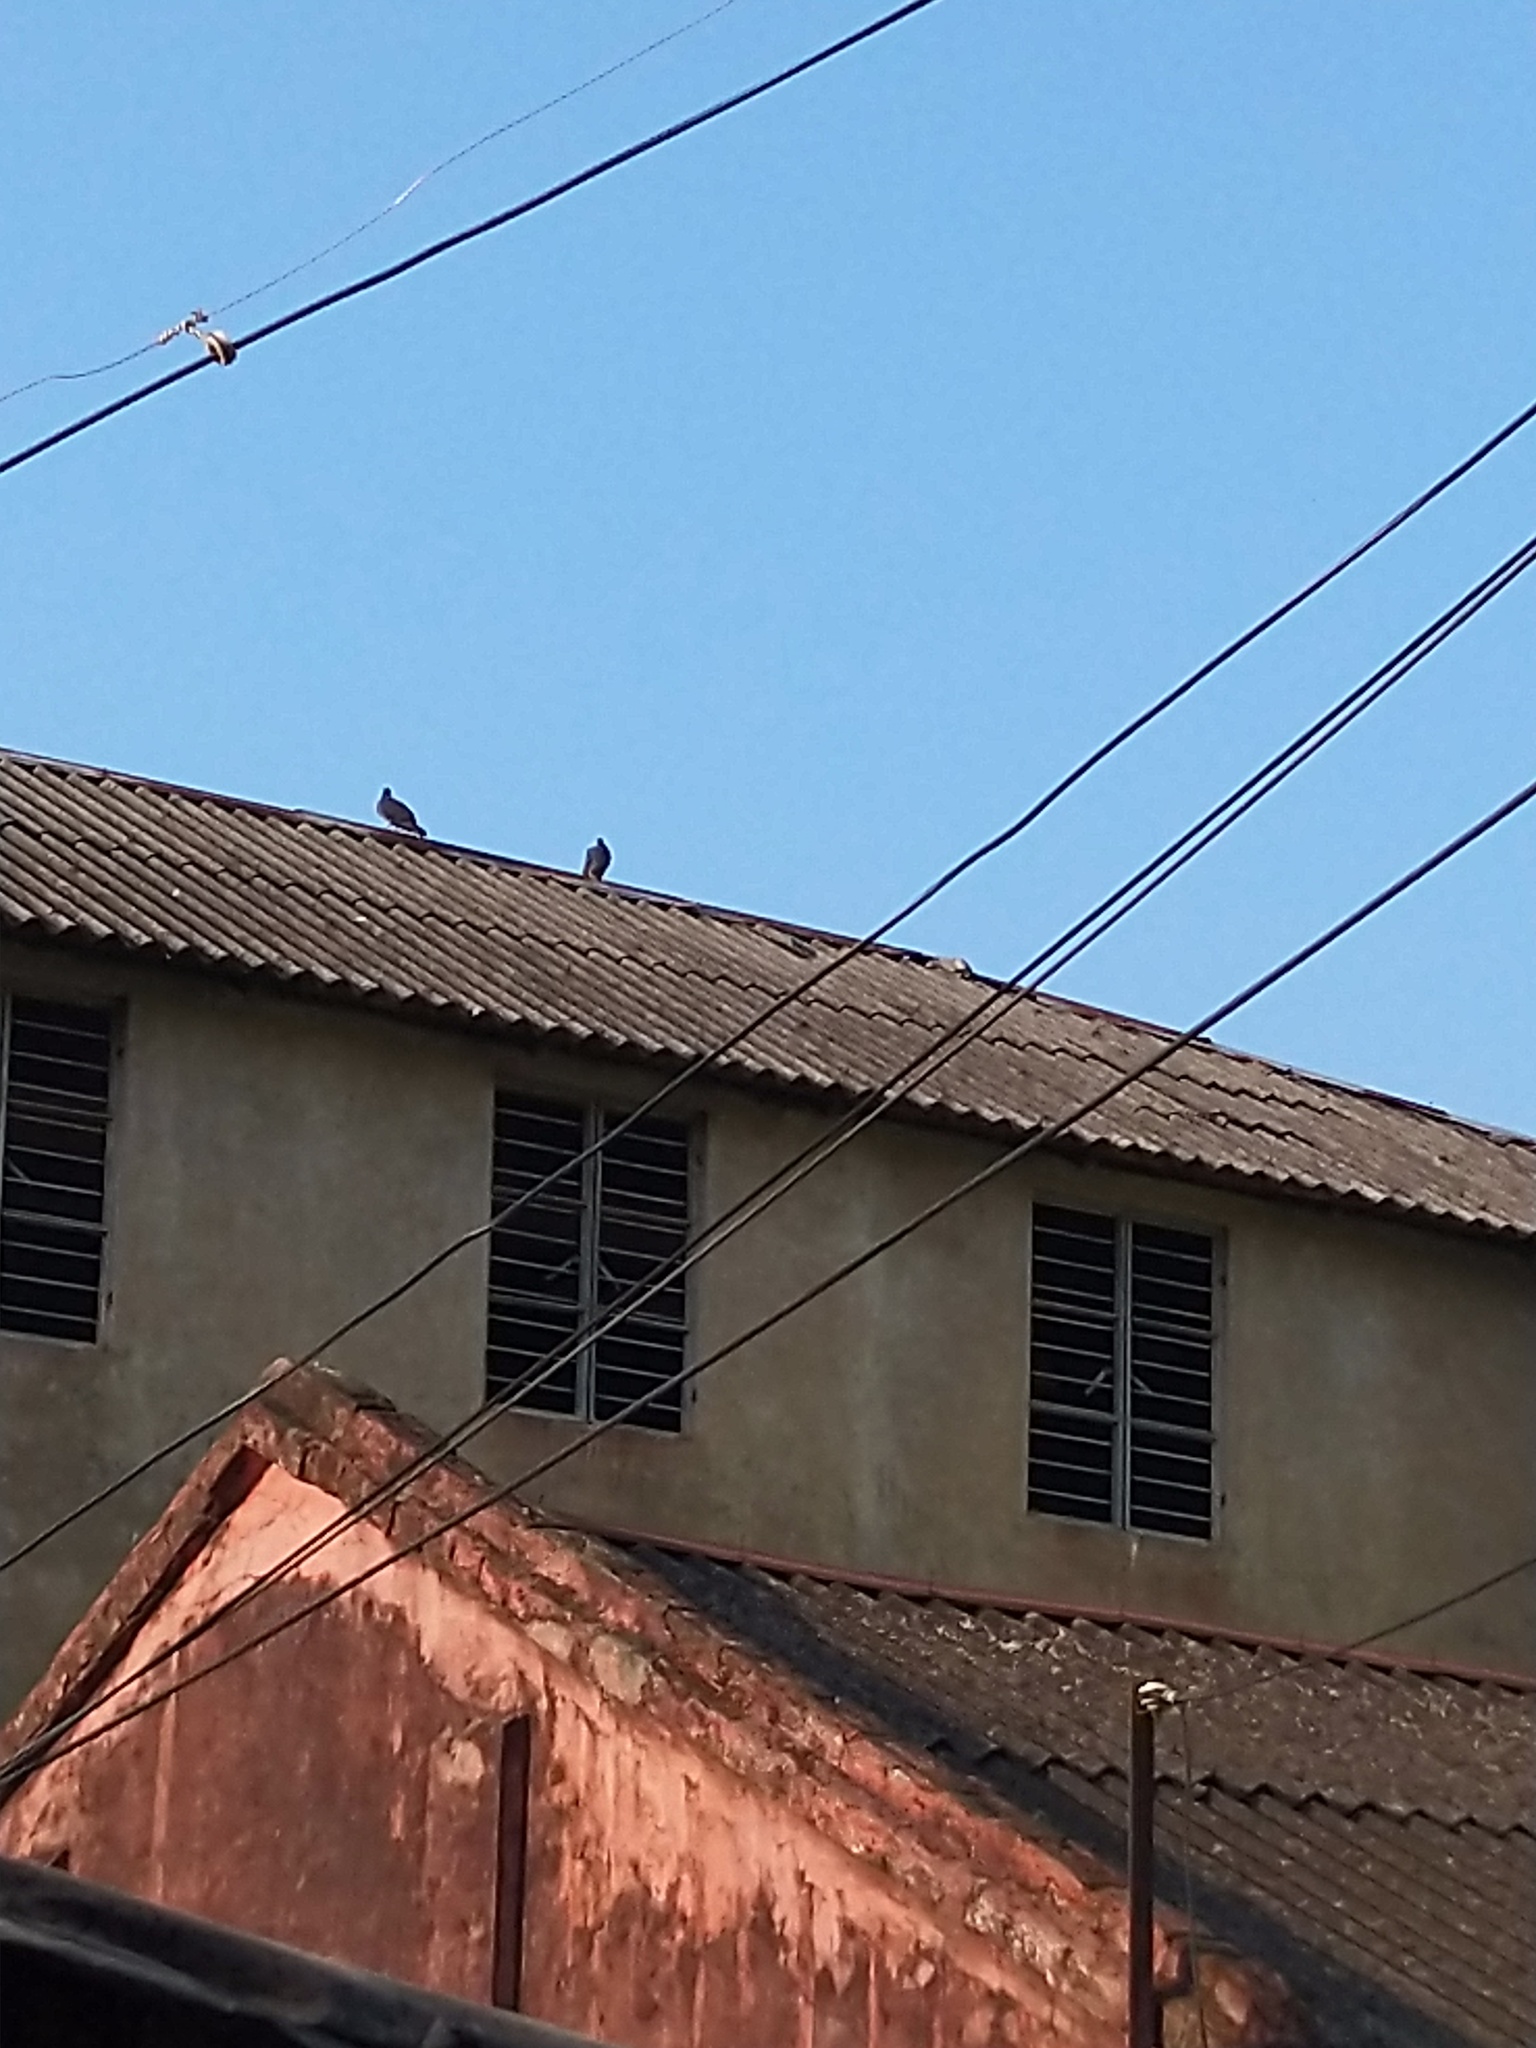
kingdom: Animalia
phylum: Chordata
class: Aves
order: Columbiformes
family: Columbidae
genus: Columba
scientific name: Columba livia
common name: Rock pigeon
